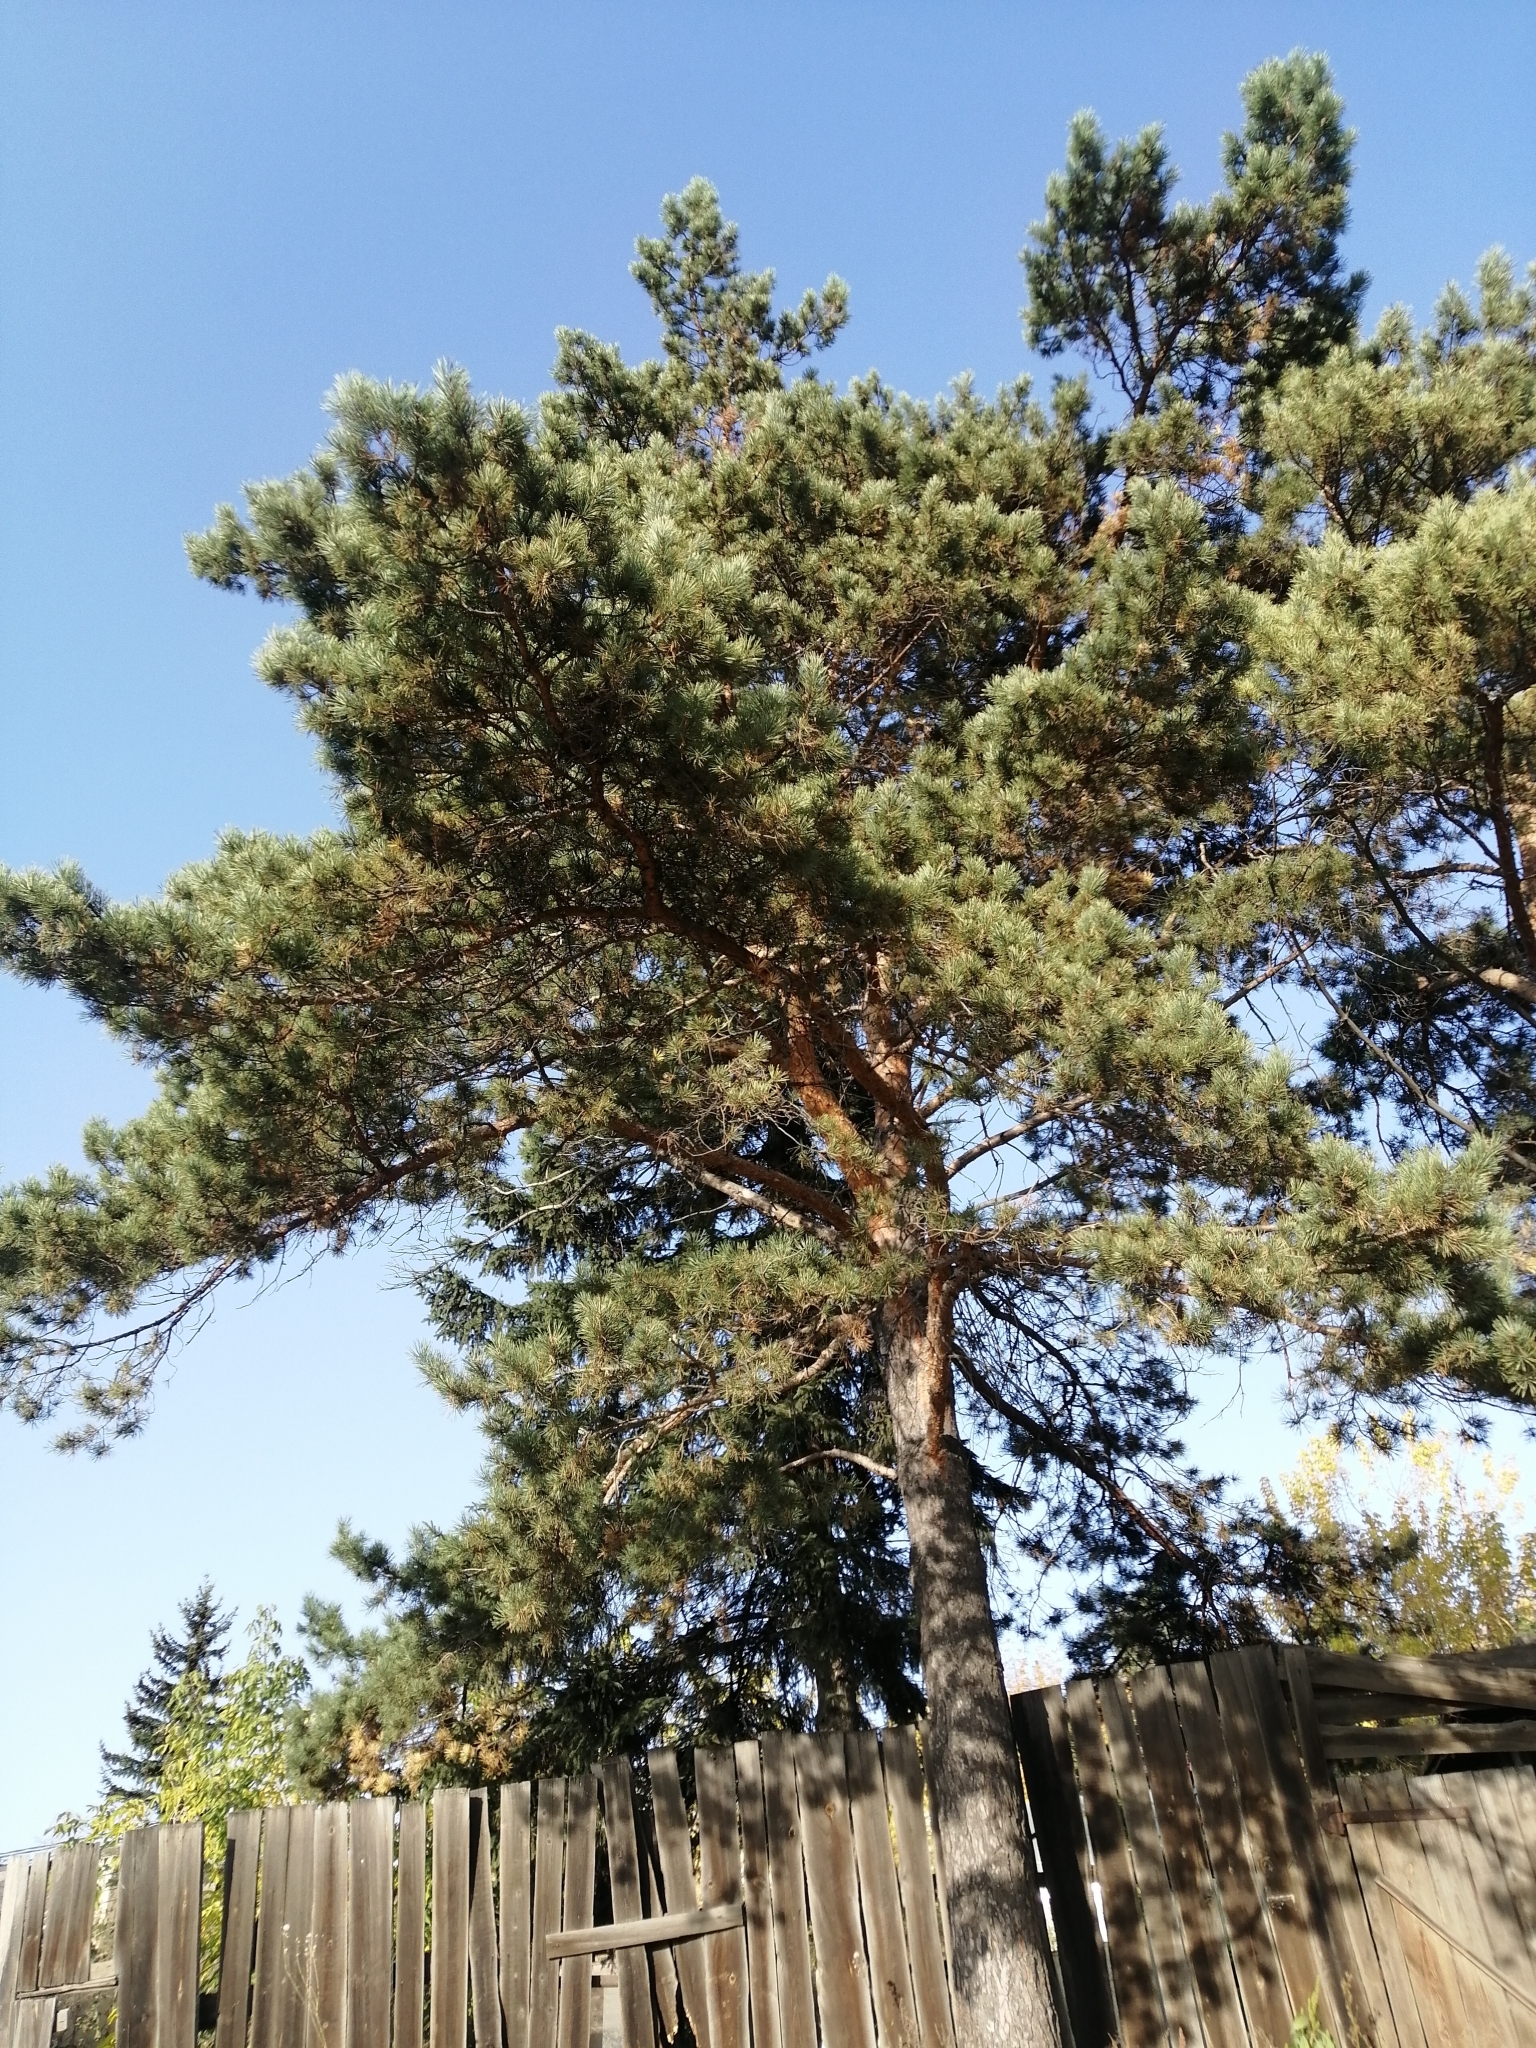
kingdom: Plantae
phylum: Tracheophyta
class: Pinopsida
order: Pinales
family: Pinaceae
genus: Pinus
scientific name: Pinus sylvestris
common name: Scots pine
